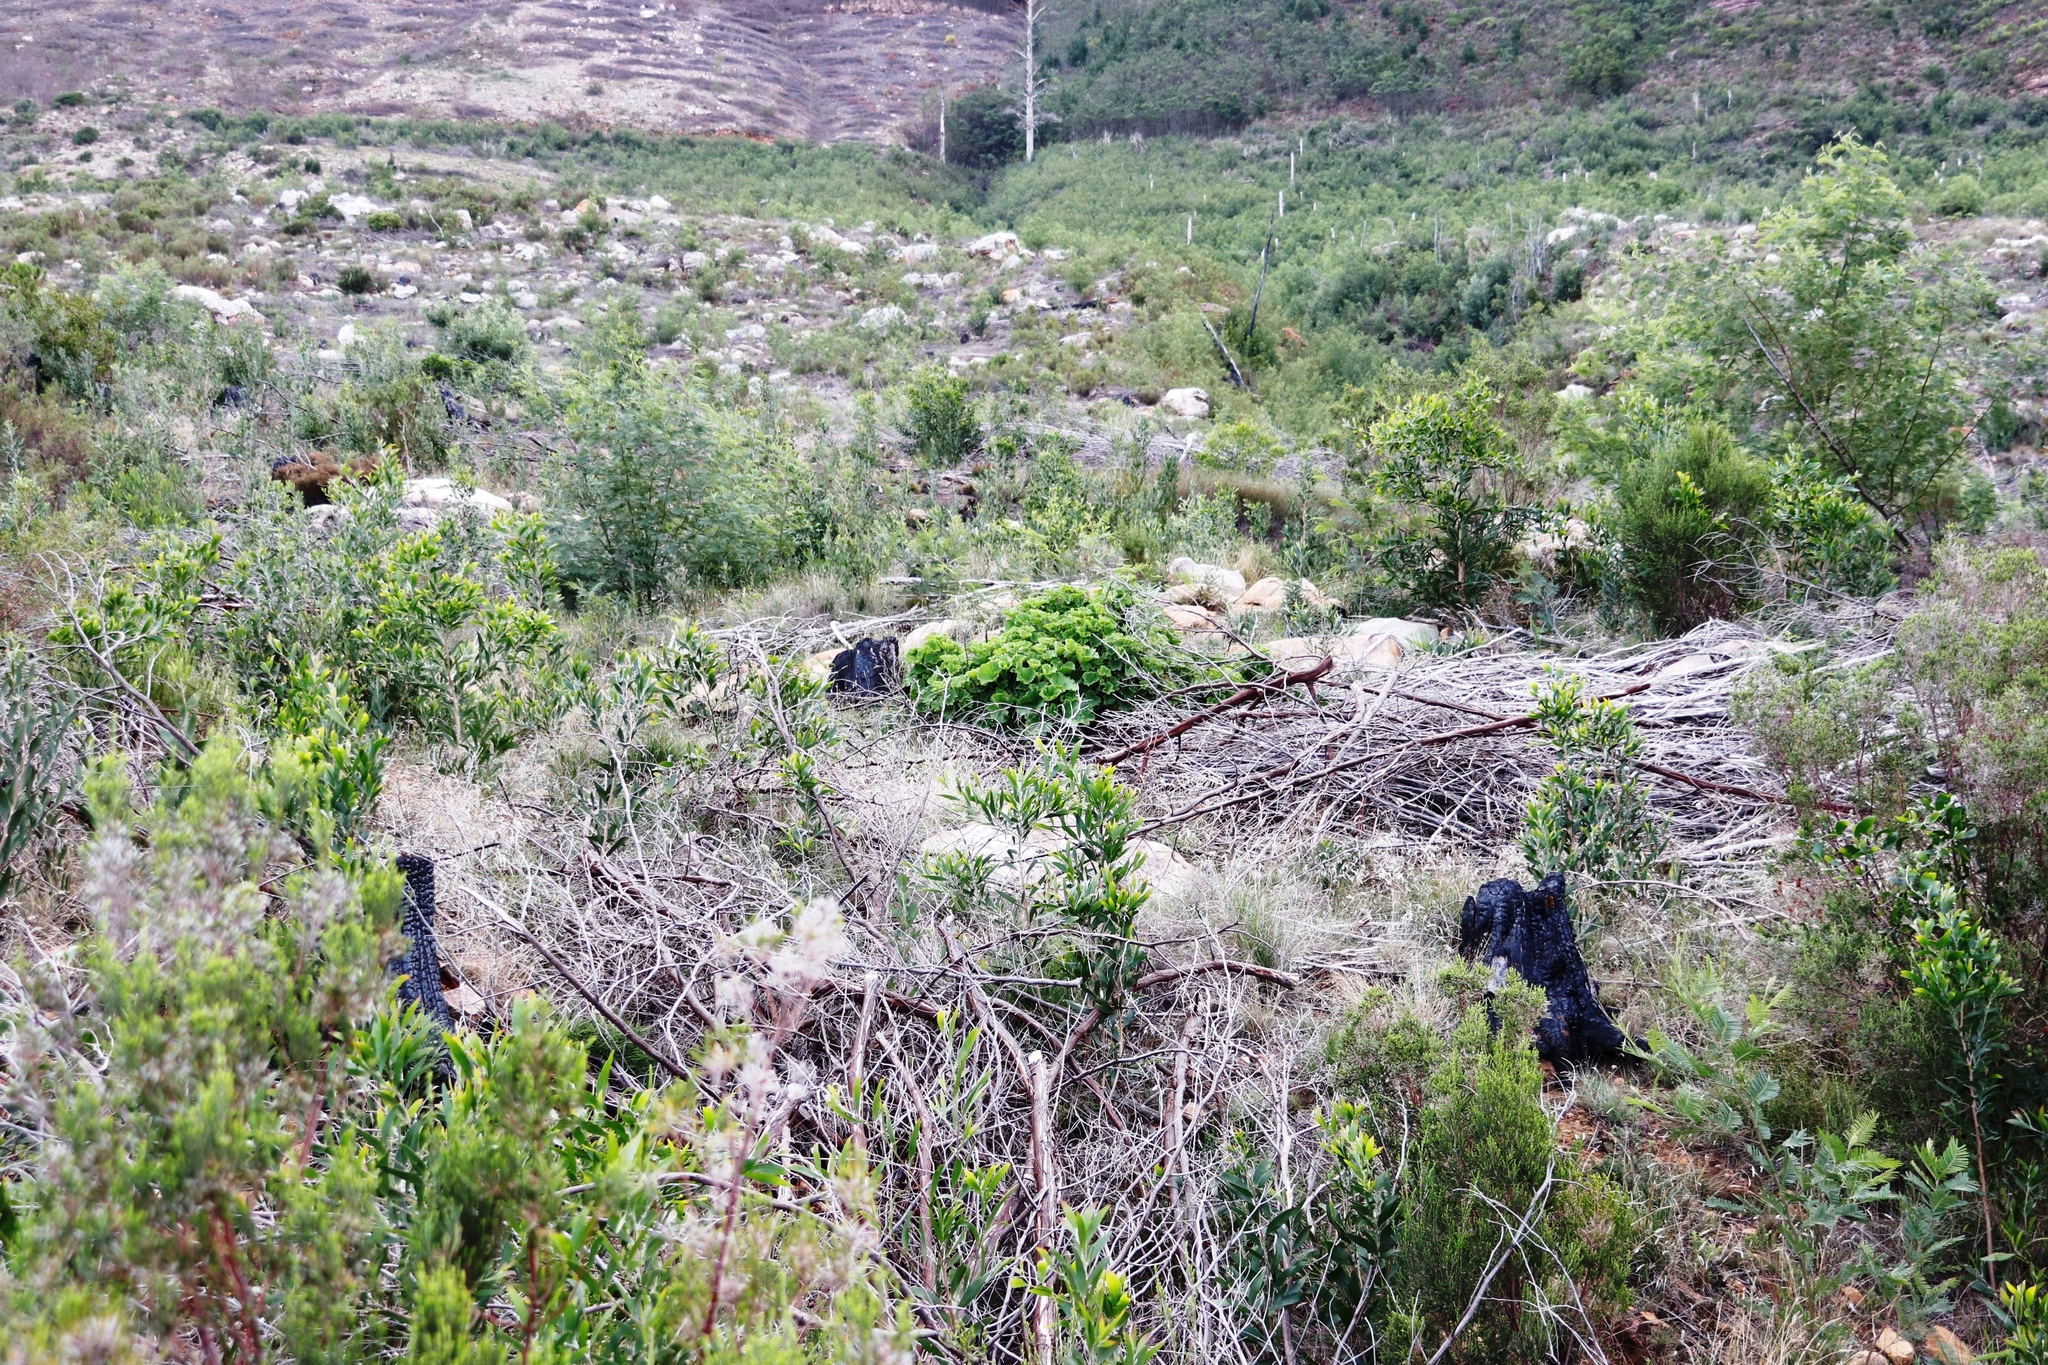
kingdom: Plantae
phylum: Tracheophyta
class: Magnoliopsida
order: Geraniales
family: Geraniaceae
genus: Pelargonium
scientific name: Pelargonium cucullatum
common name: Tree pelargonium
